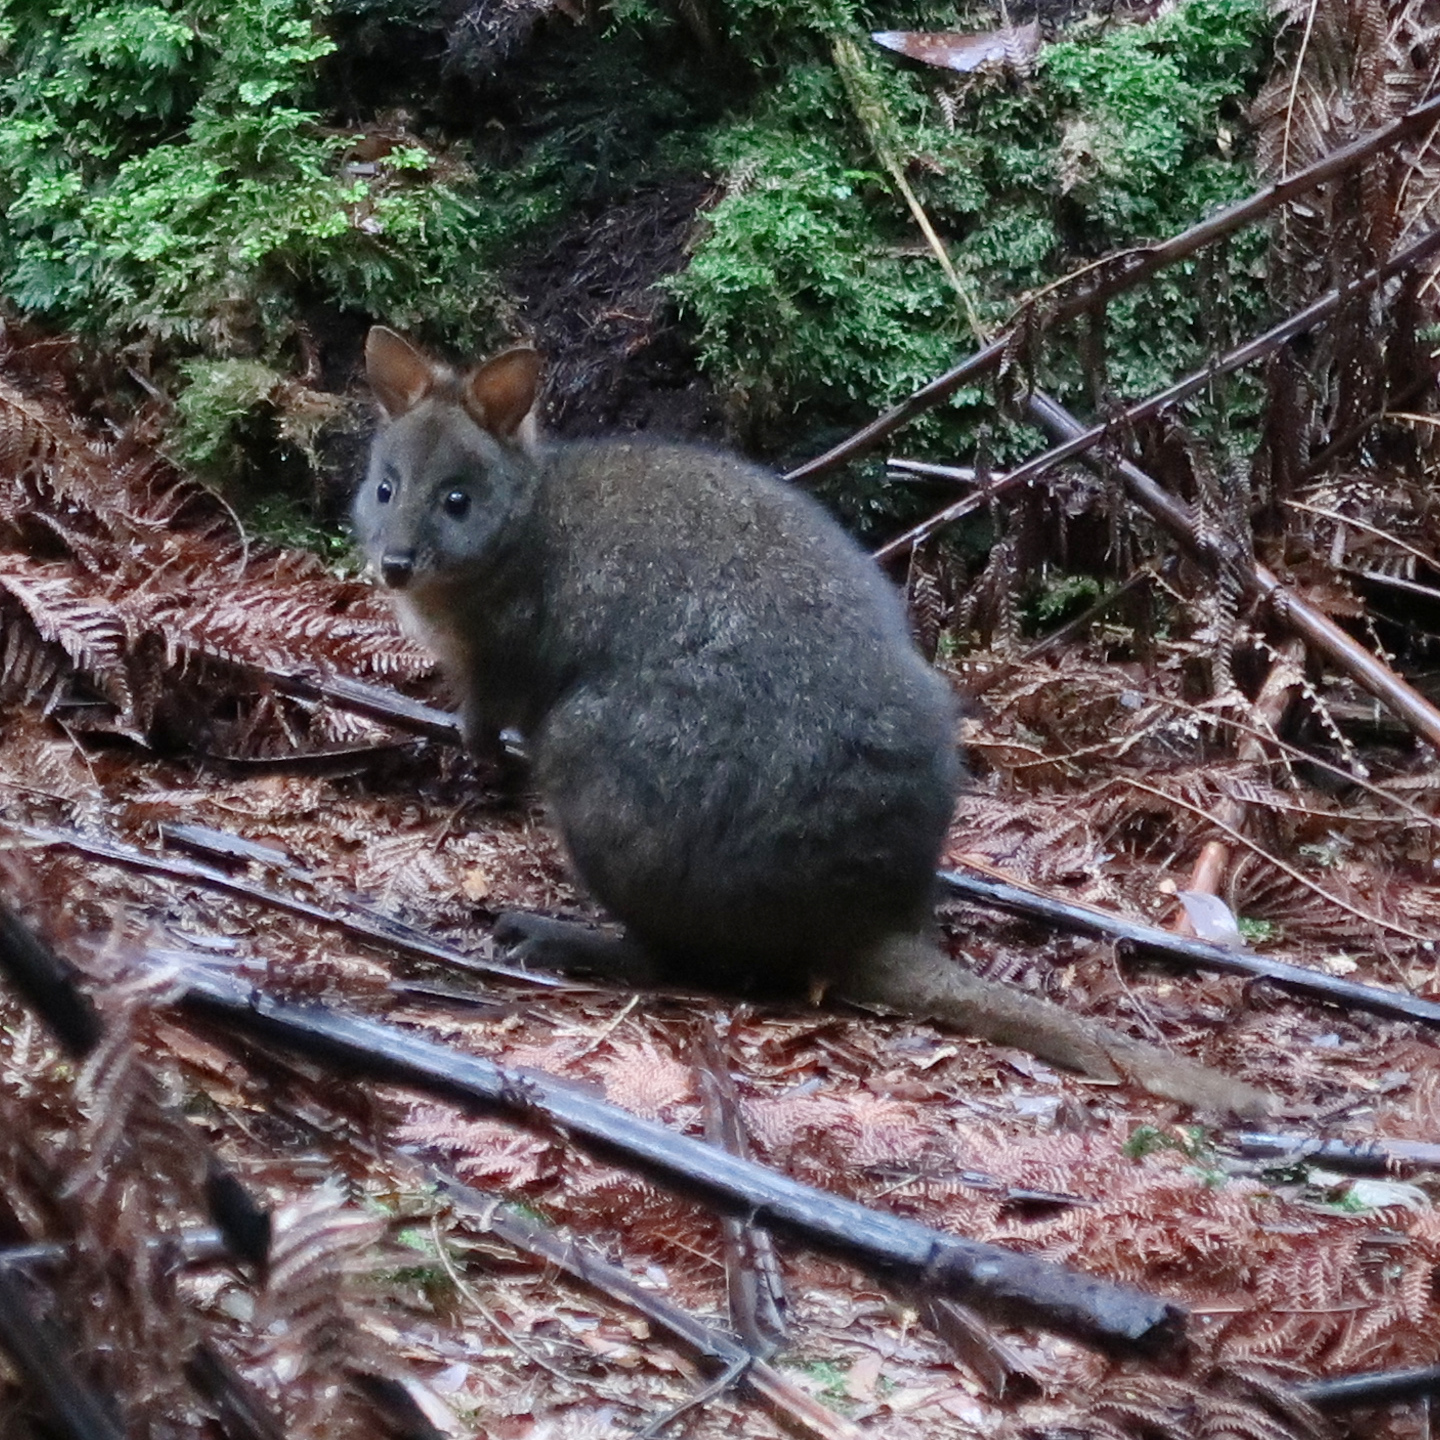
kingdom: Animalia
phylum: Chordata
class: Mammalia
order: Diprotodontia
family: Macropodidae
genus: Thylogale
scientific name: Thylogale billardierii
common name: Tasmanian pademelon
